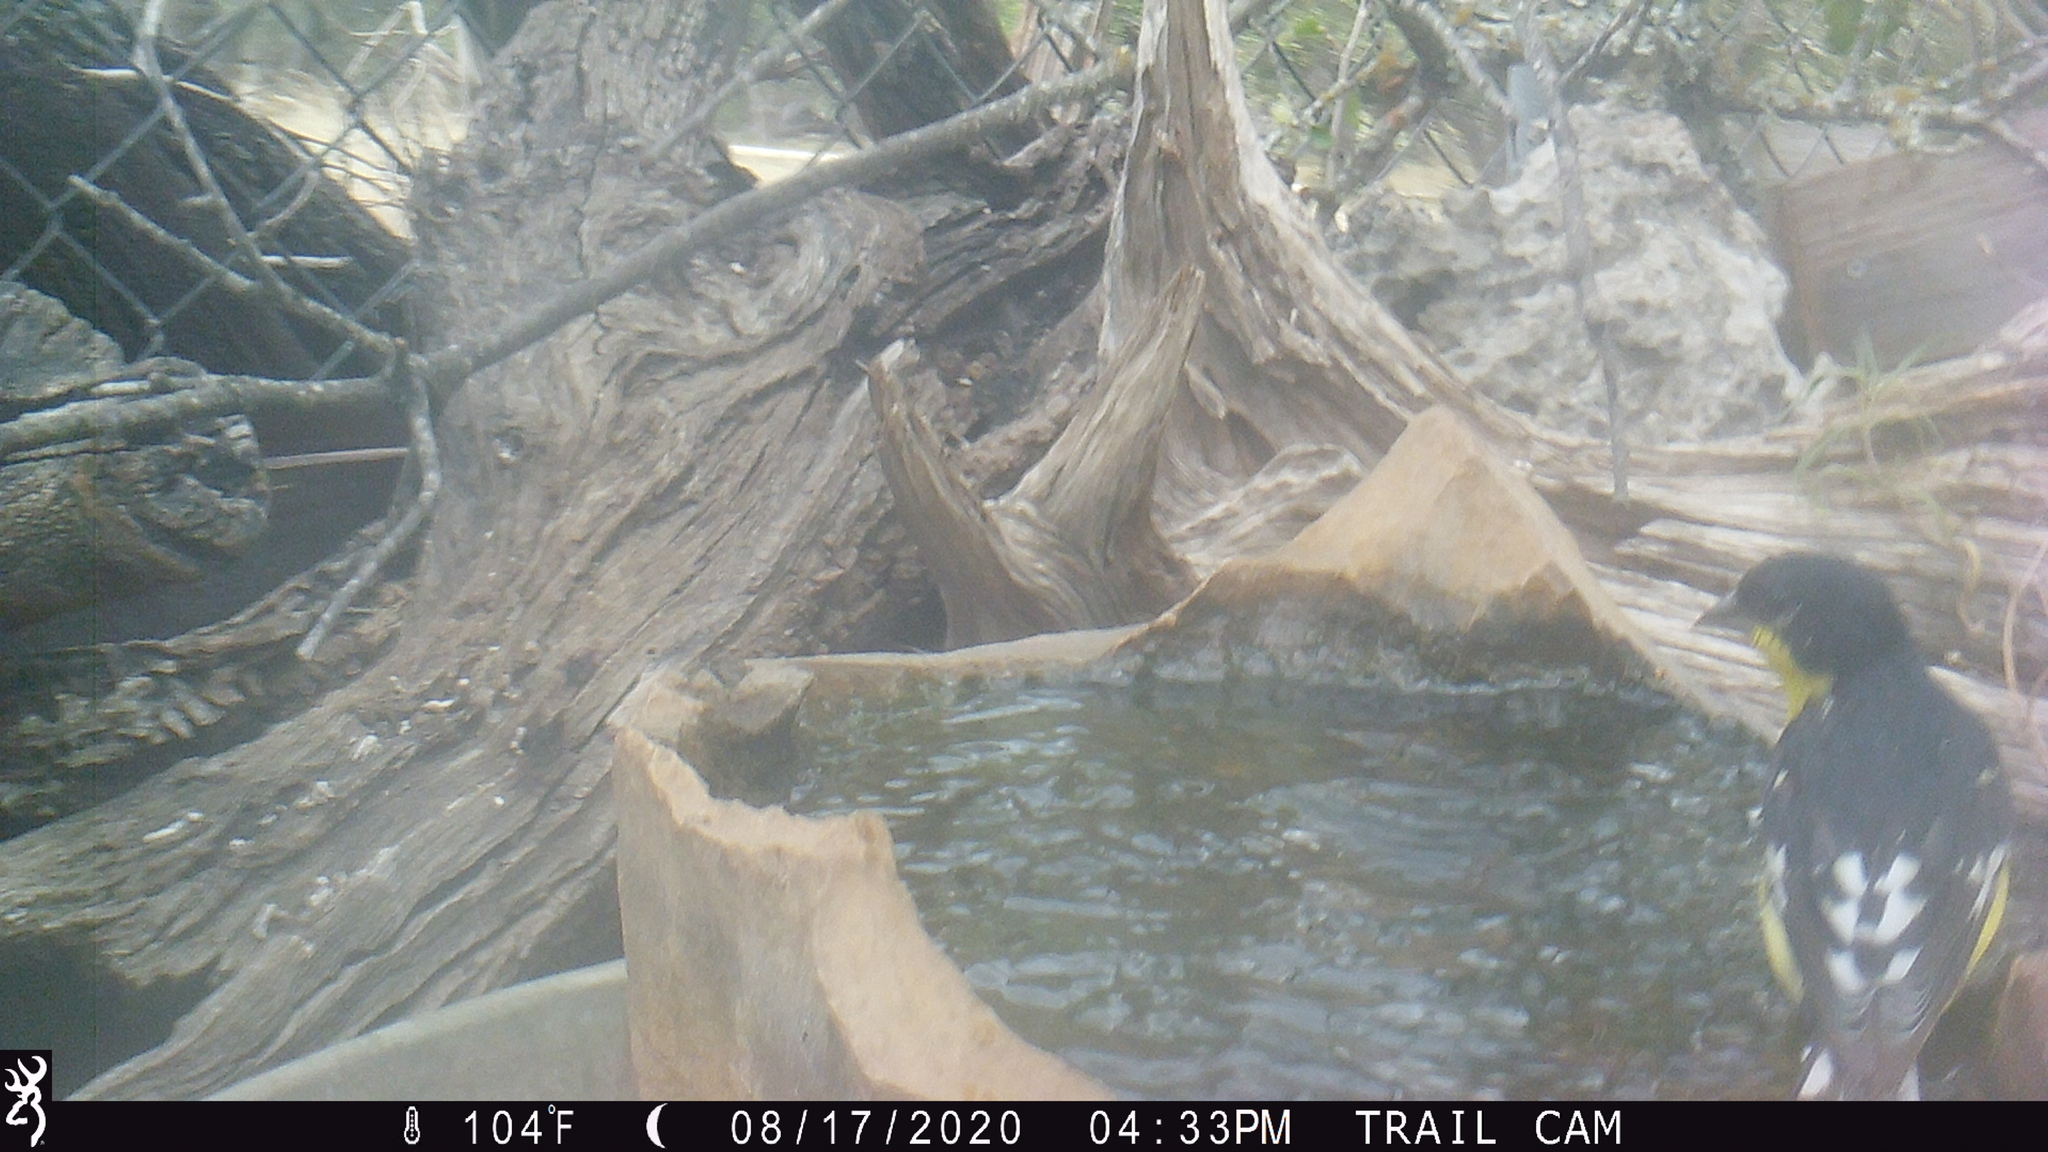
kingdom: Animalia
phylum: Chordata
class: Aves
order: Passeriformes
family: Fringillidae
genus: Spinus
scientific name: Spinus psaltria
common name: Lesser goldfinch
